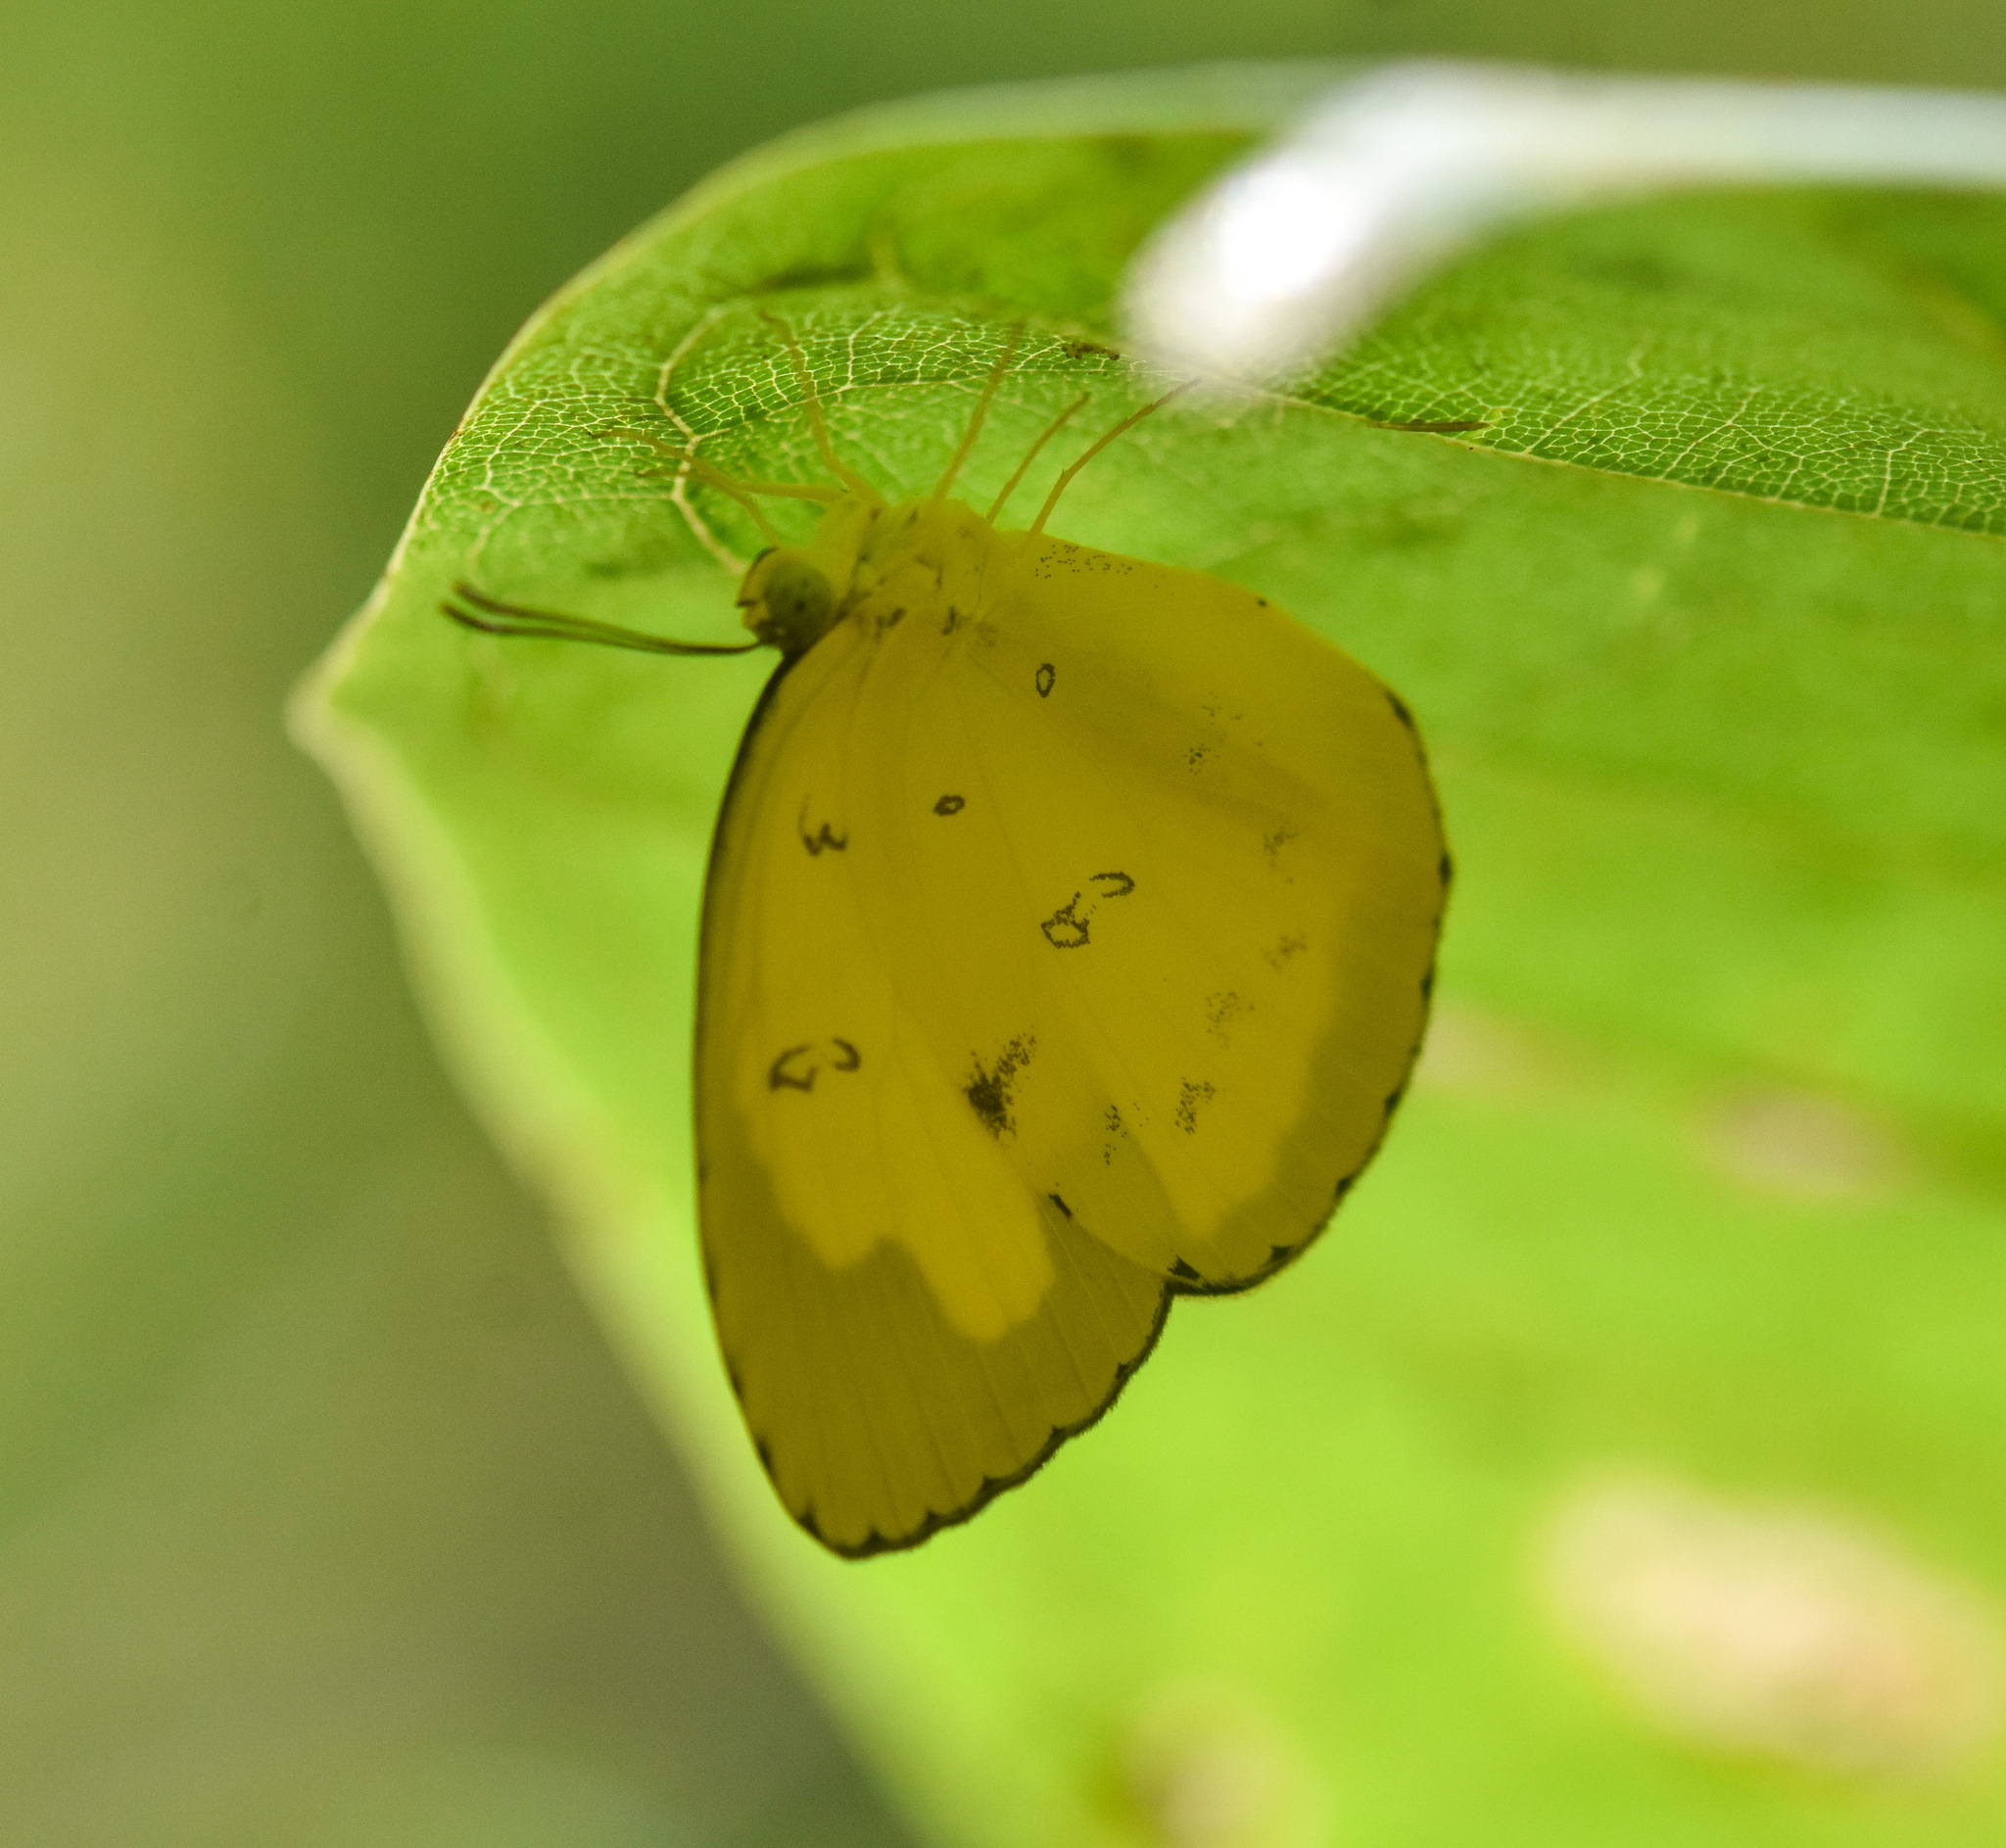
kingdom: Animalia
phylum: Arthropoda
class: Insecta
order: Lepidoptera
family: Pieridae
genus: Eurema
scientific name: Eurema andersoni
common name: One-spot yellow grass
